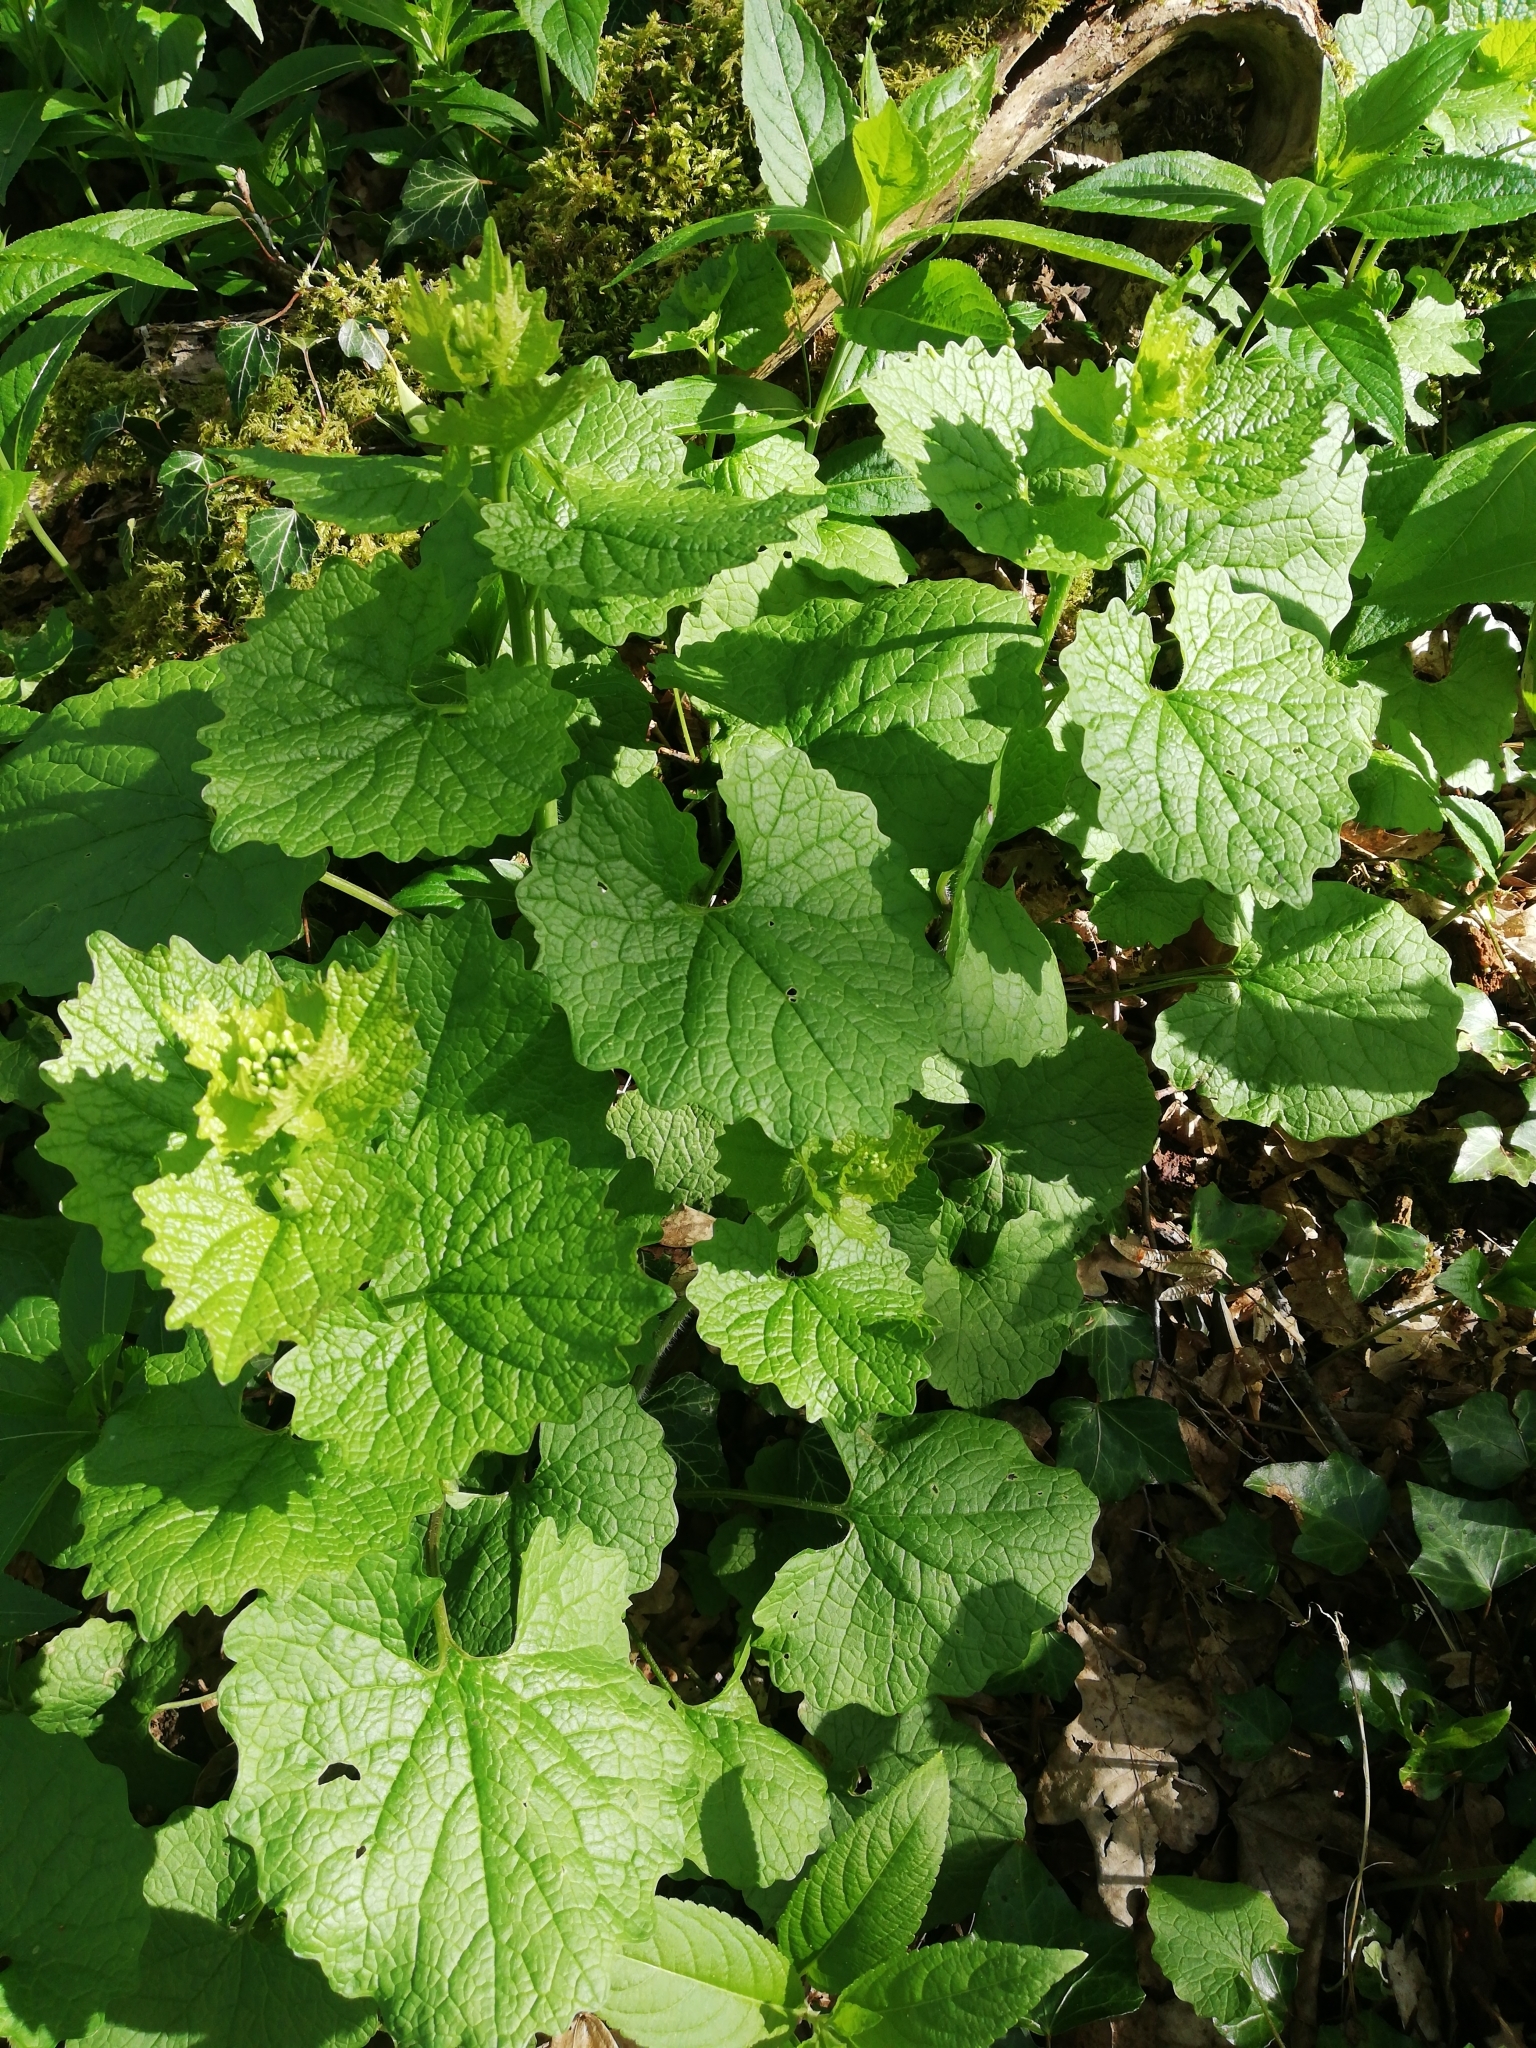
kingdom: Plantae
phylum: Tracheophyta
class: Magnoliopsida
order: Brassicales
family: Brassicaceae
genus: Alliaria
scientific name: Alliaria petiolata
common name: Garlic mustard
